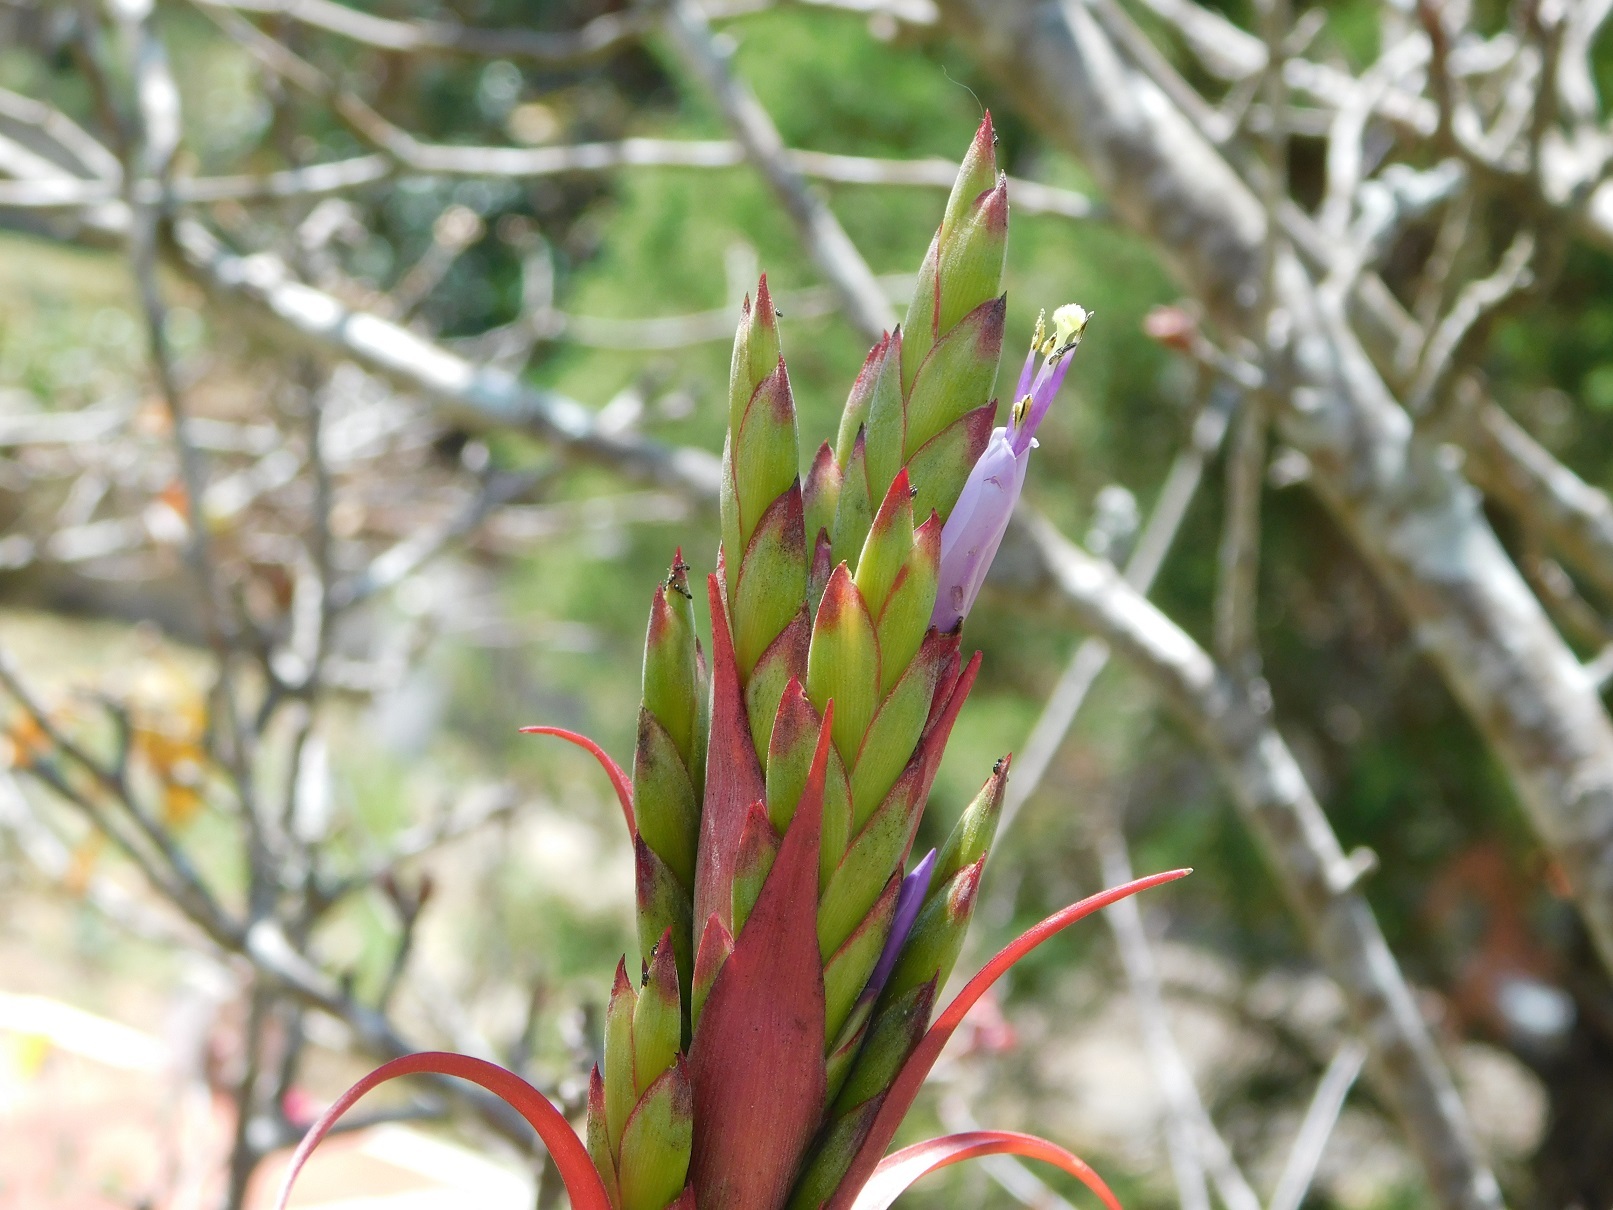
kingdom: Plantae
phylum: Tracheophyta
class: Liliopsida
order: Poales
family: Bromeliaceae
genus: Tillandsia
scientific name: Tillandsia belloensis
